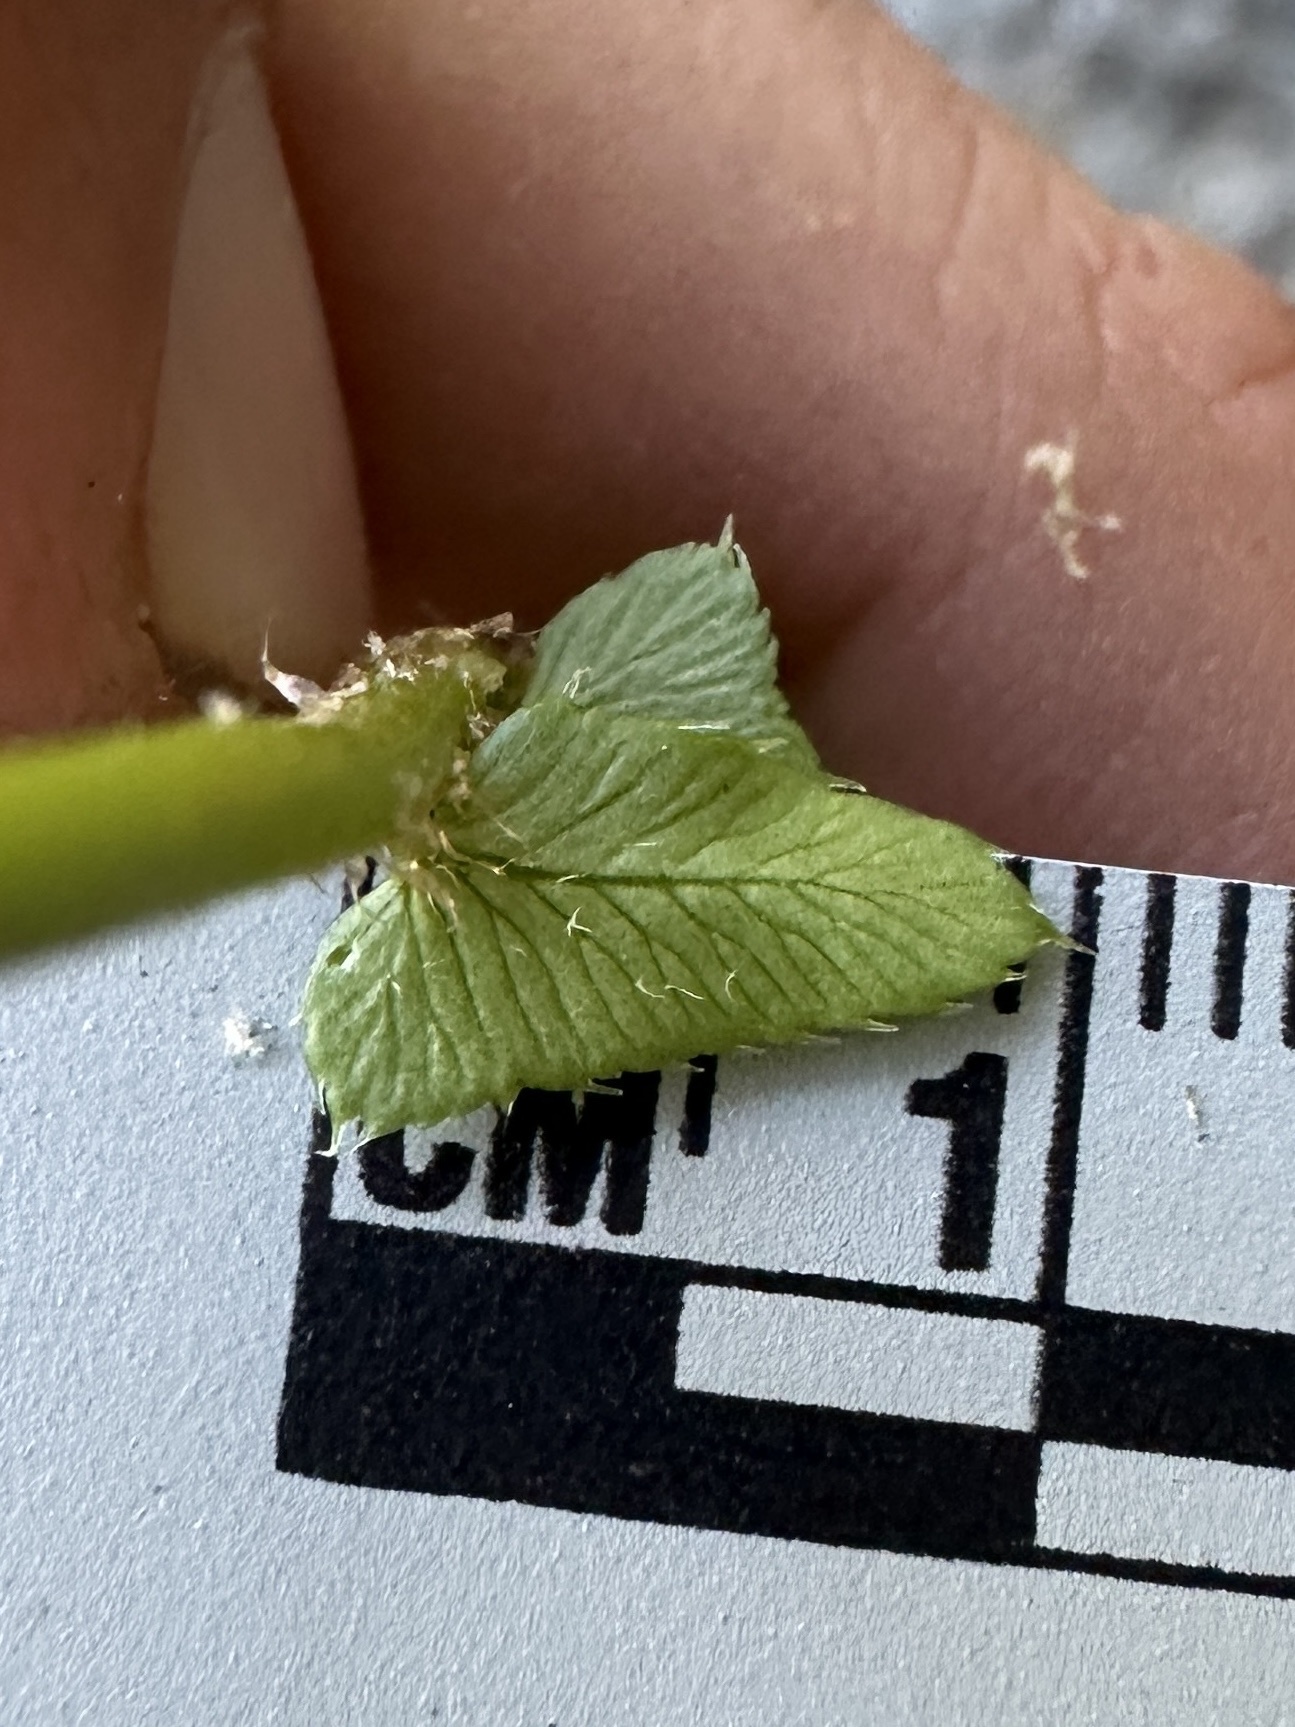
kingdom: Plantae
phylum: Tracheophyta
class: Polypodiopsida
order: Polypodiales
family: Dryopteridaceae
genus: Polystichum
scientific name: Polystichum imbricans
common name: Dwarf western sword fern
